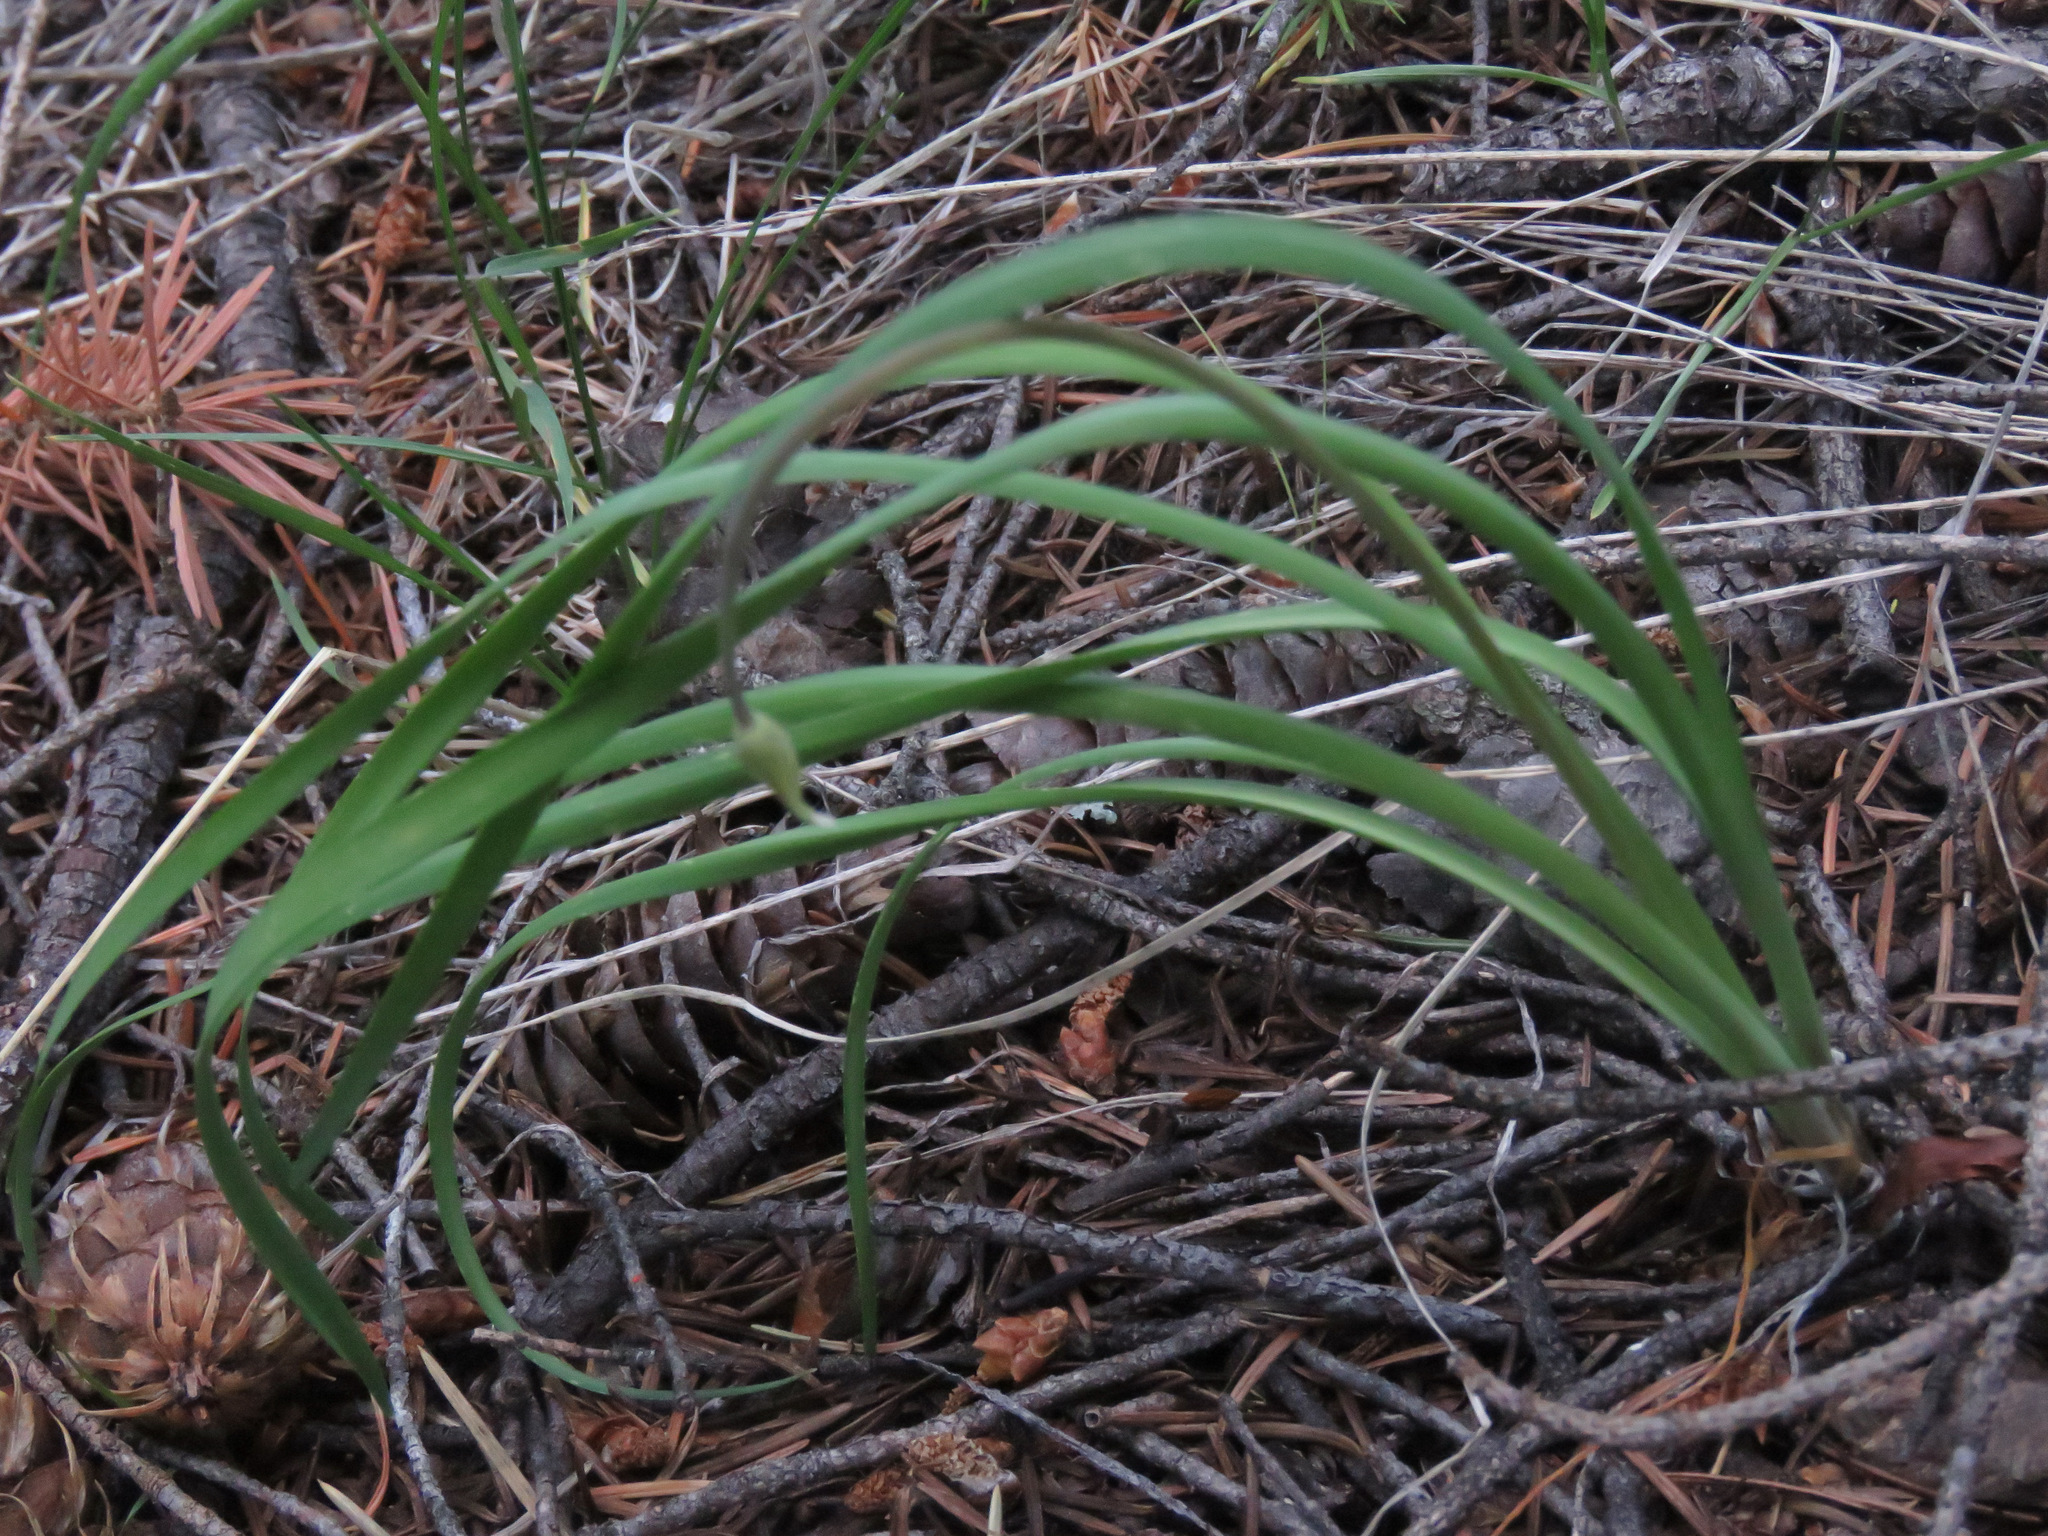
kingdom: Plantae
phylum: Tracheophyta
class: Liliopsida
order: Asparagales
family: Amaryllidaceae
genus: Allium
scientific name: Allium cernuum
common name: Nodding onion
